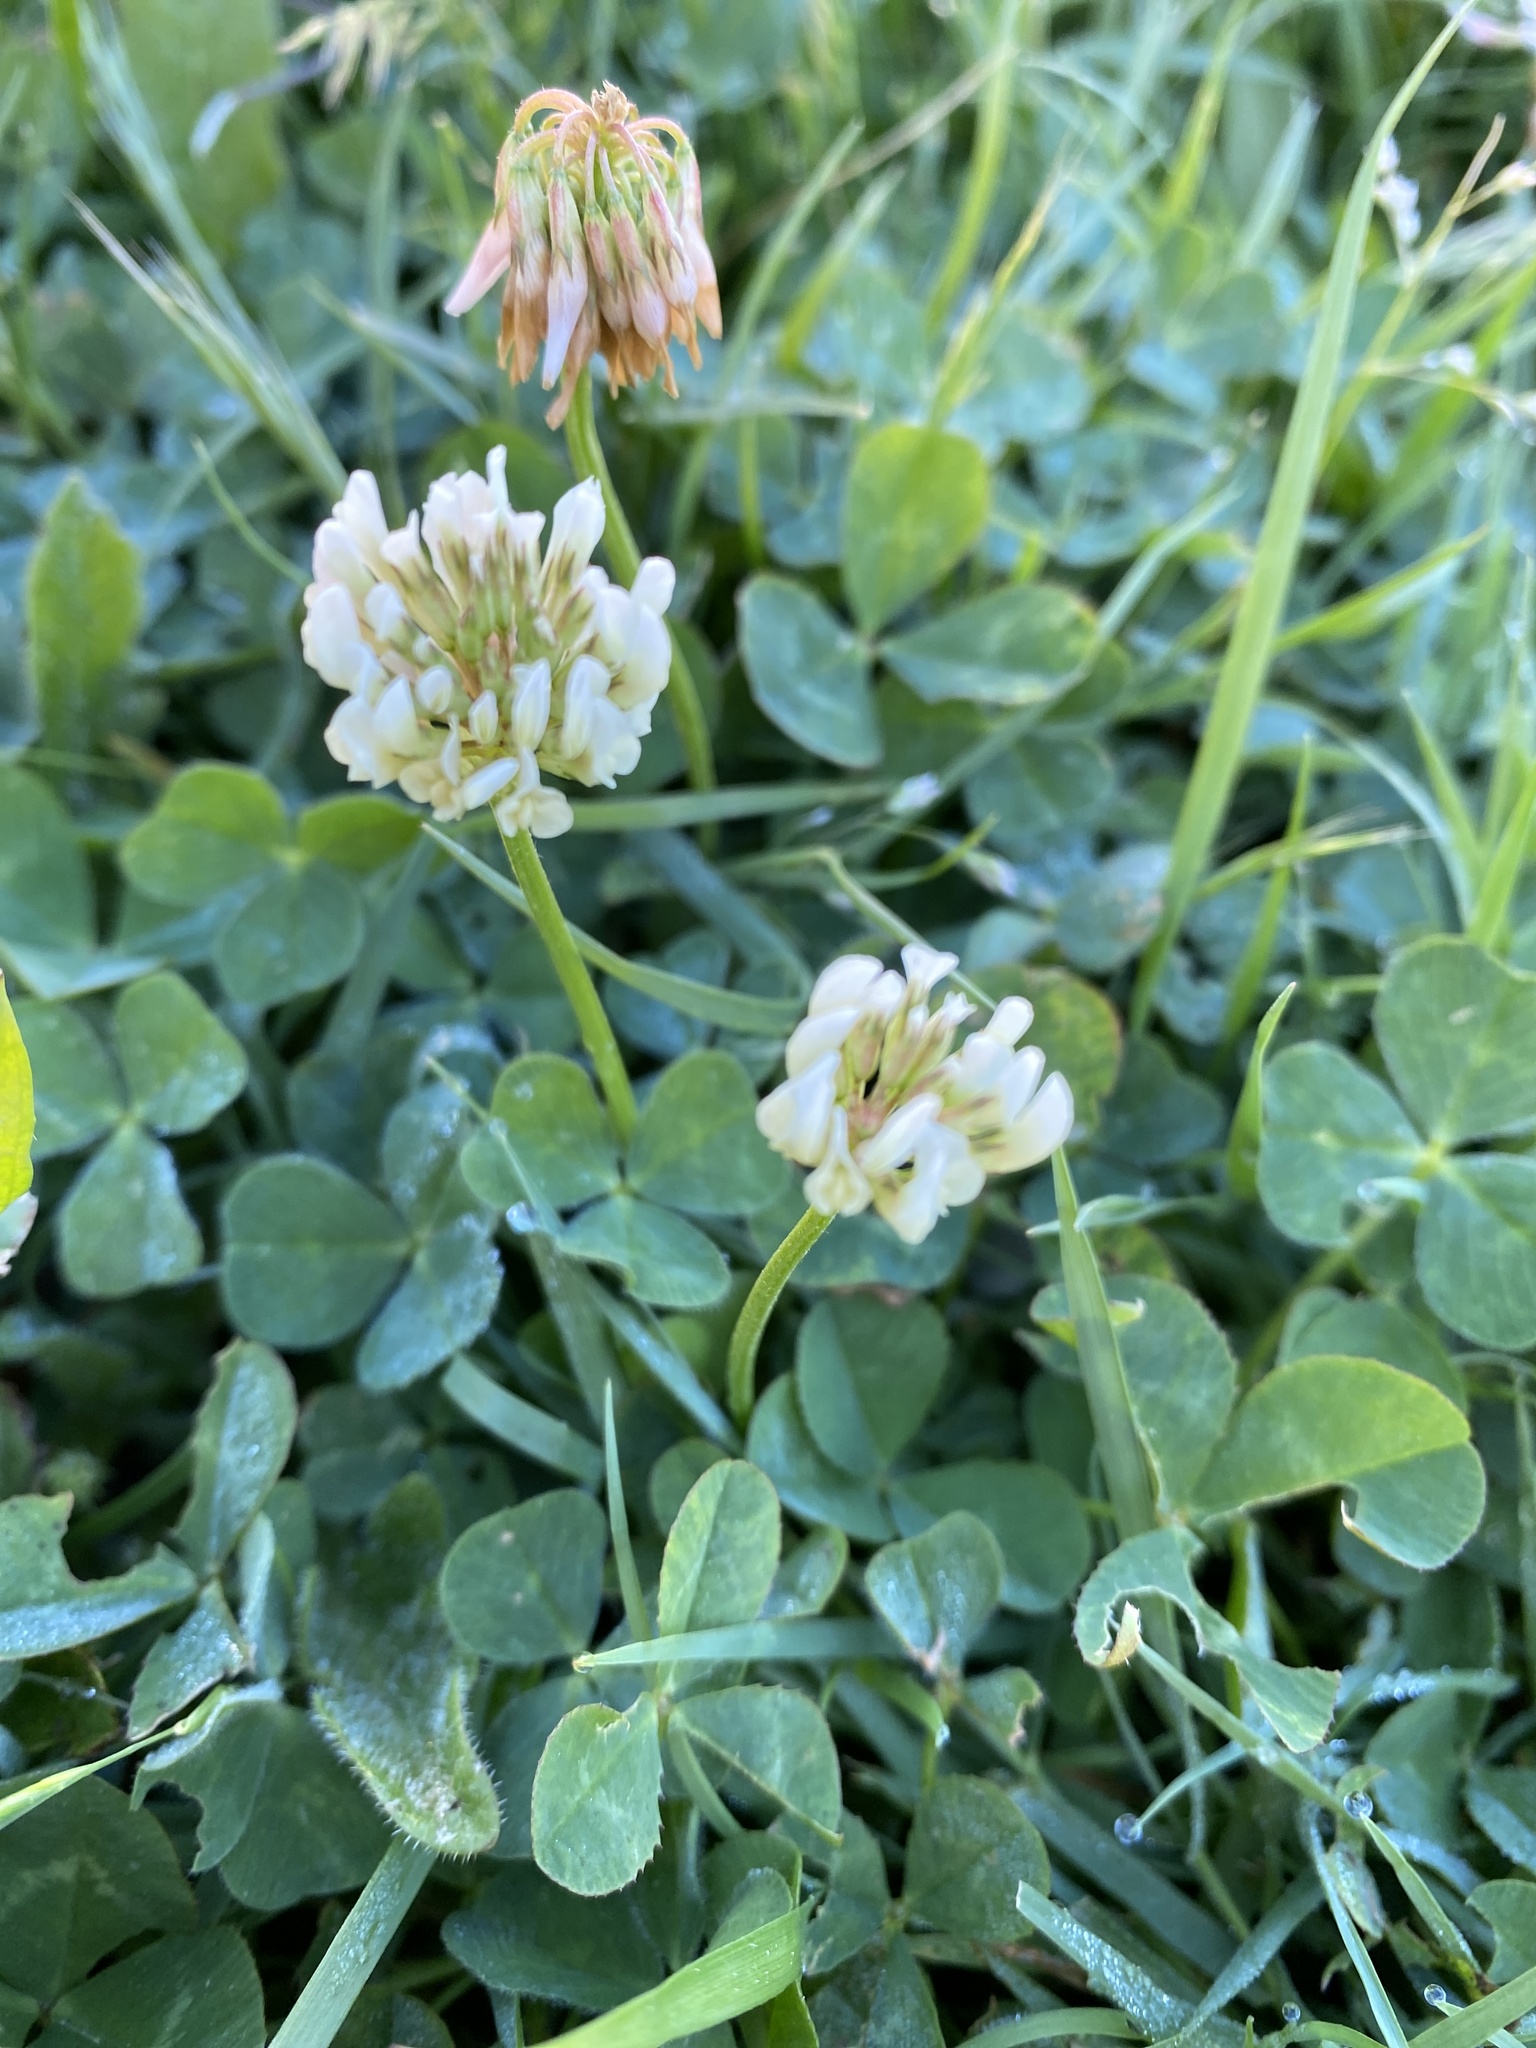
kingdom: Plantae
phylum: Tracheophyta
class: Magnoliopsida
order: Fabales
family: Fabaceae
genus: Trifolium
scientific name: Trifolium repens
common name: White clover
